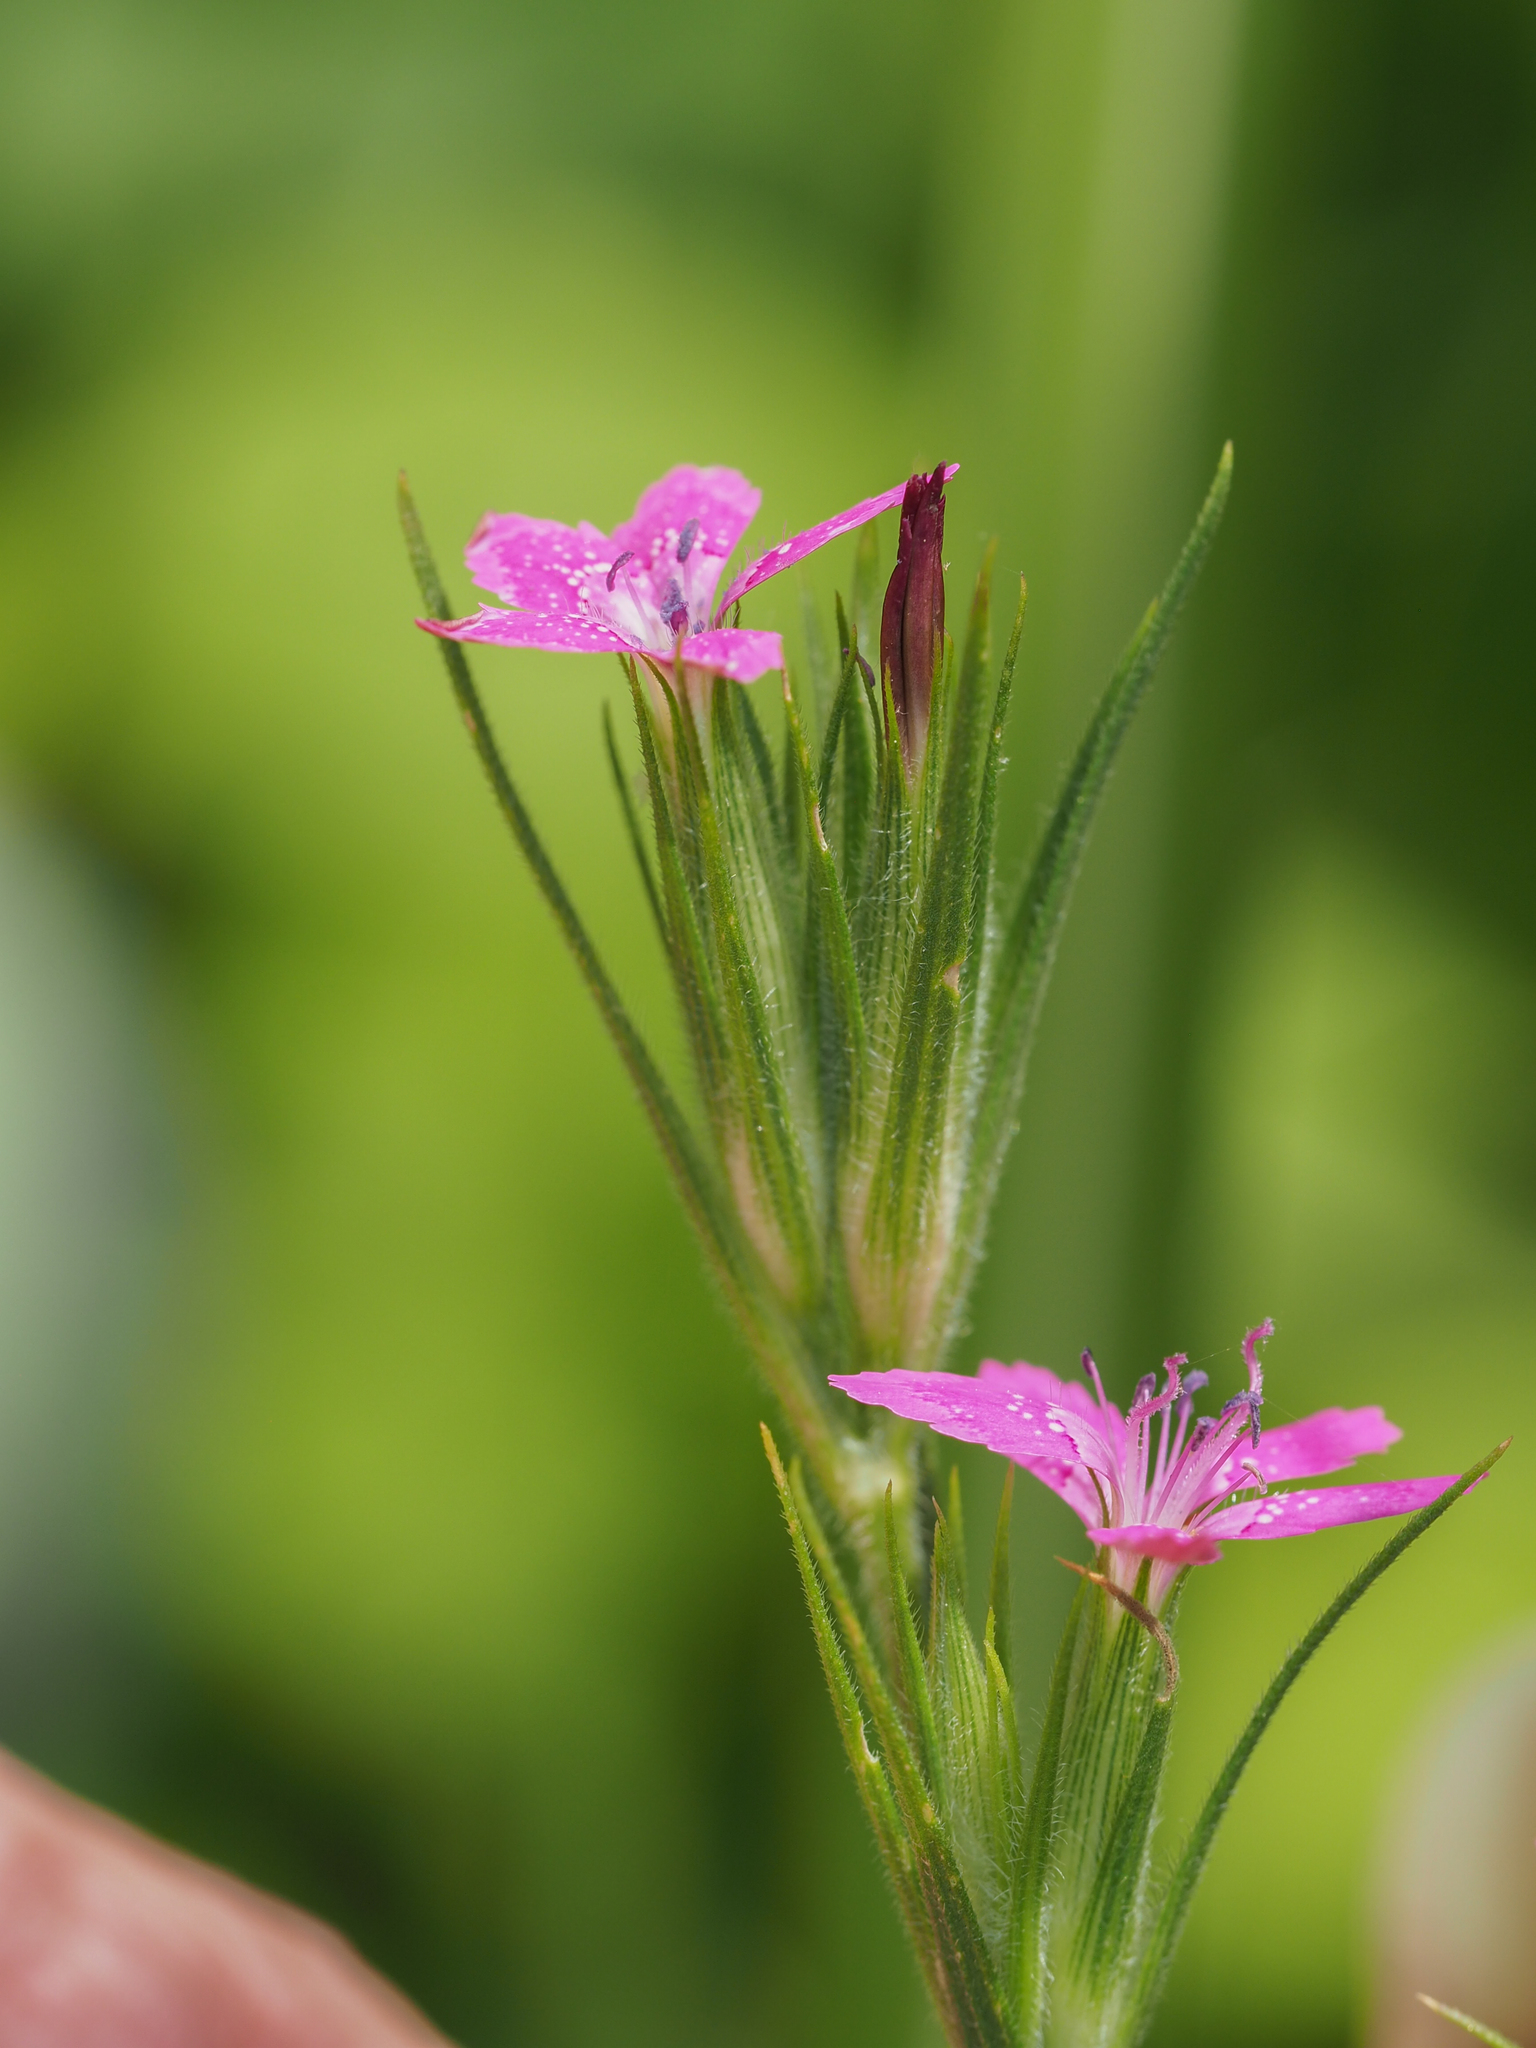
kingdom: Plantae
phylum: Tracheophyta
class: Magnoliopsida
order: Caryophyllales
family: Caryophyllaceae
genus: Dianthus
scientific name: Dianthus armeria
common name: Deptford pink
